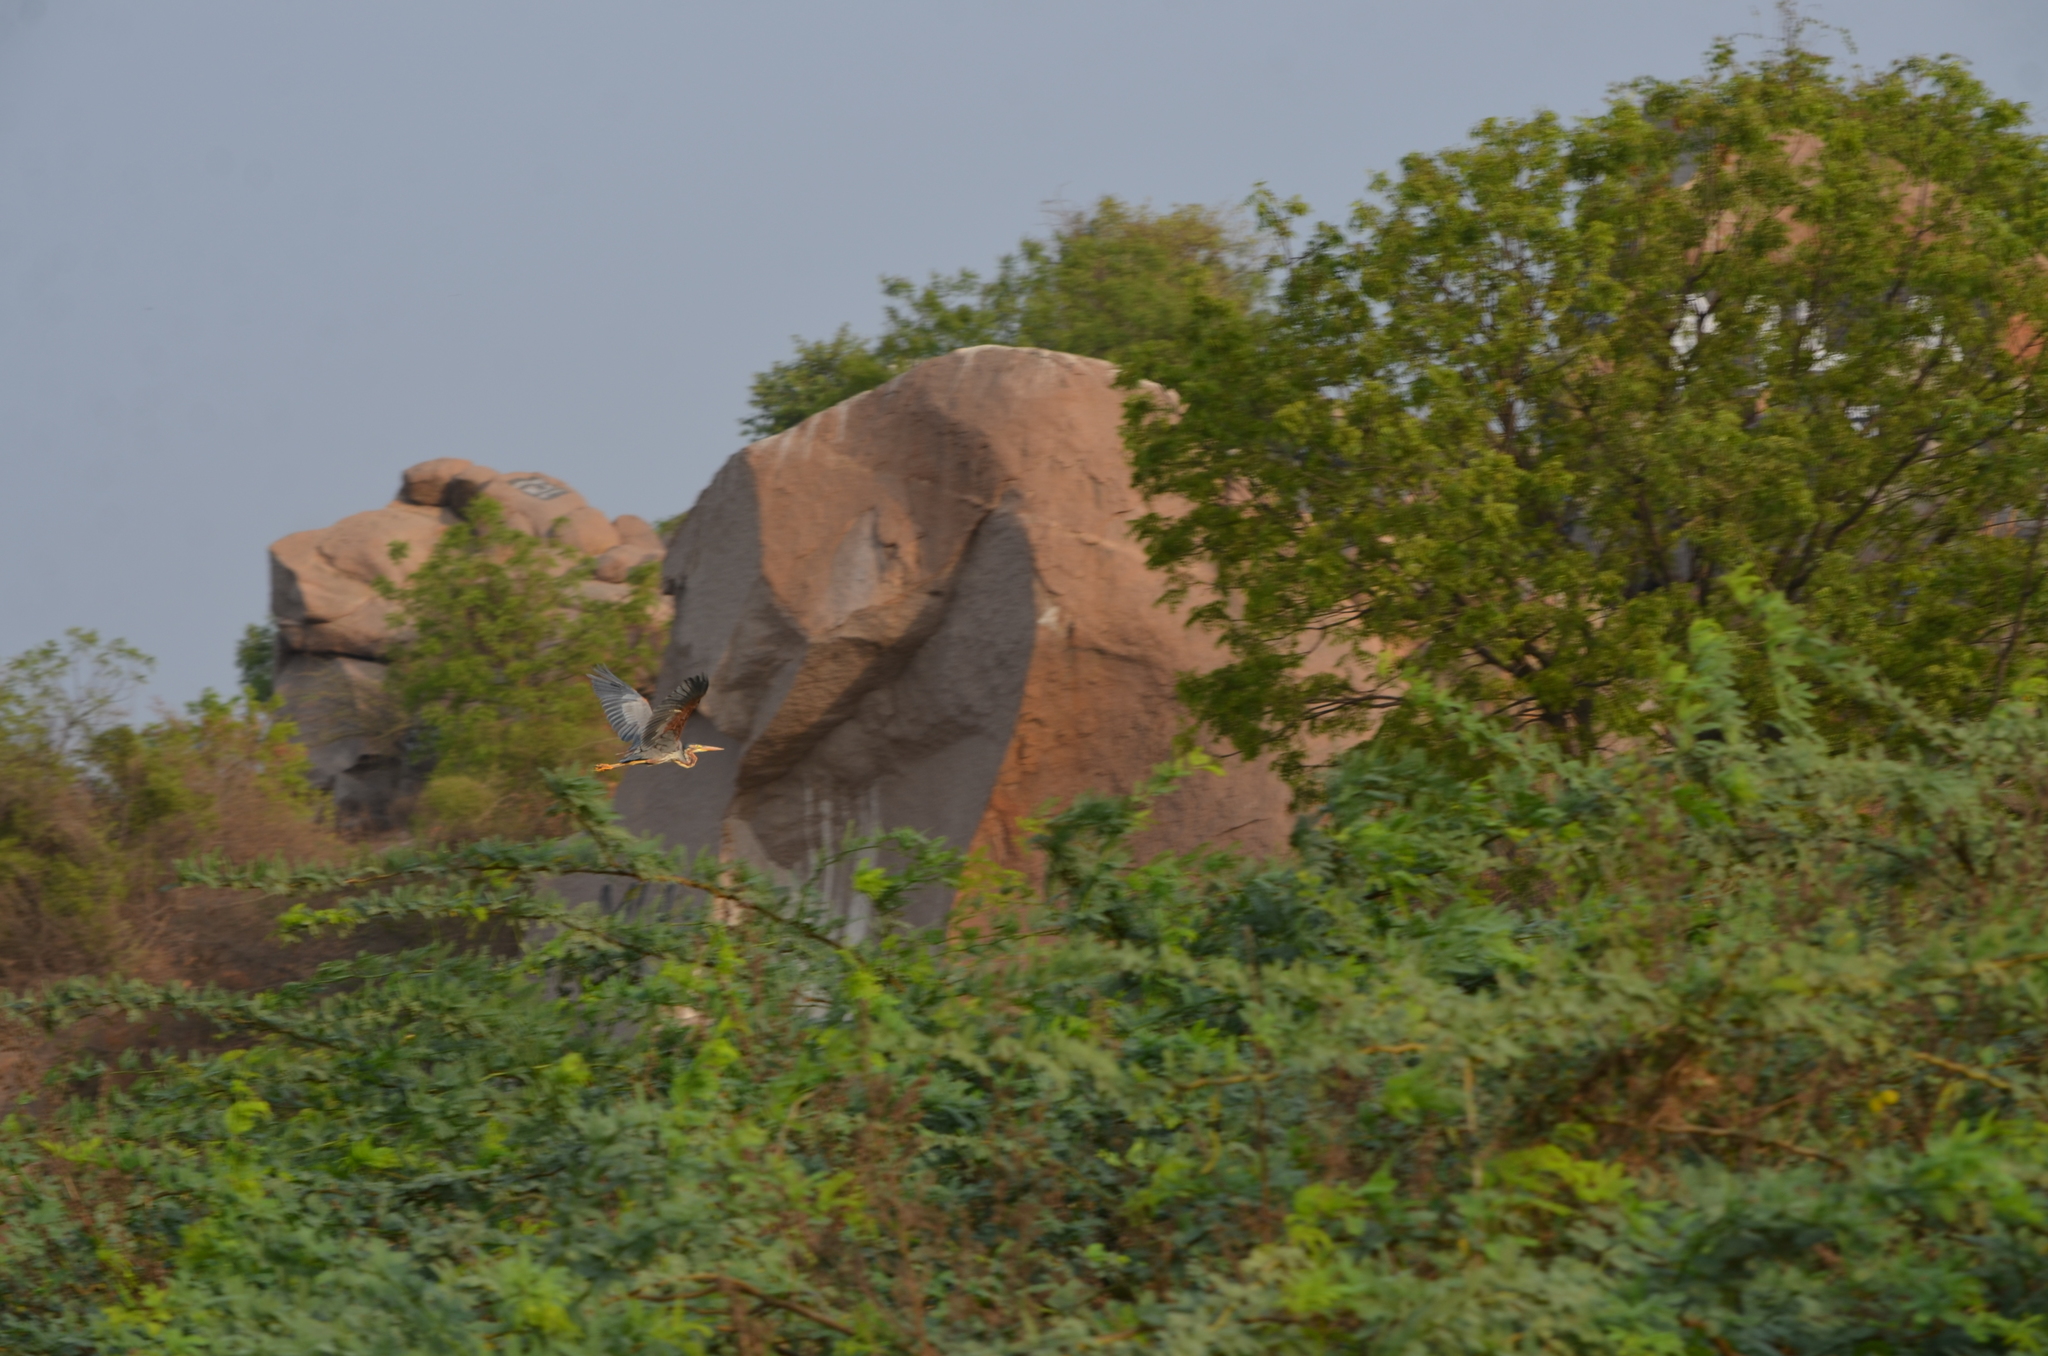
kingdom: Animalia
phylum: Chordata
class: Aves
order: Pelecaniformes
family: Ardeidae
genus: Ardea
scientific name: Ardea purpurea
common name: Purple heron
